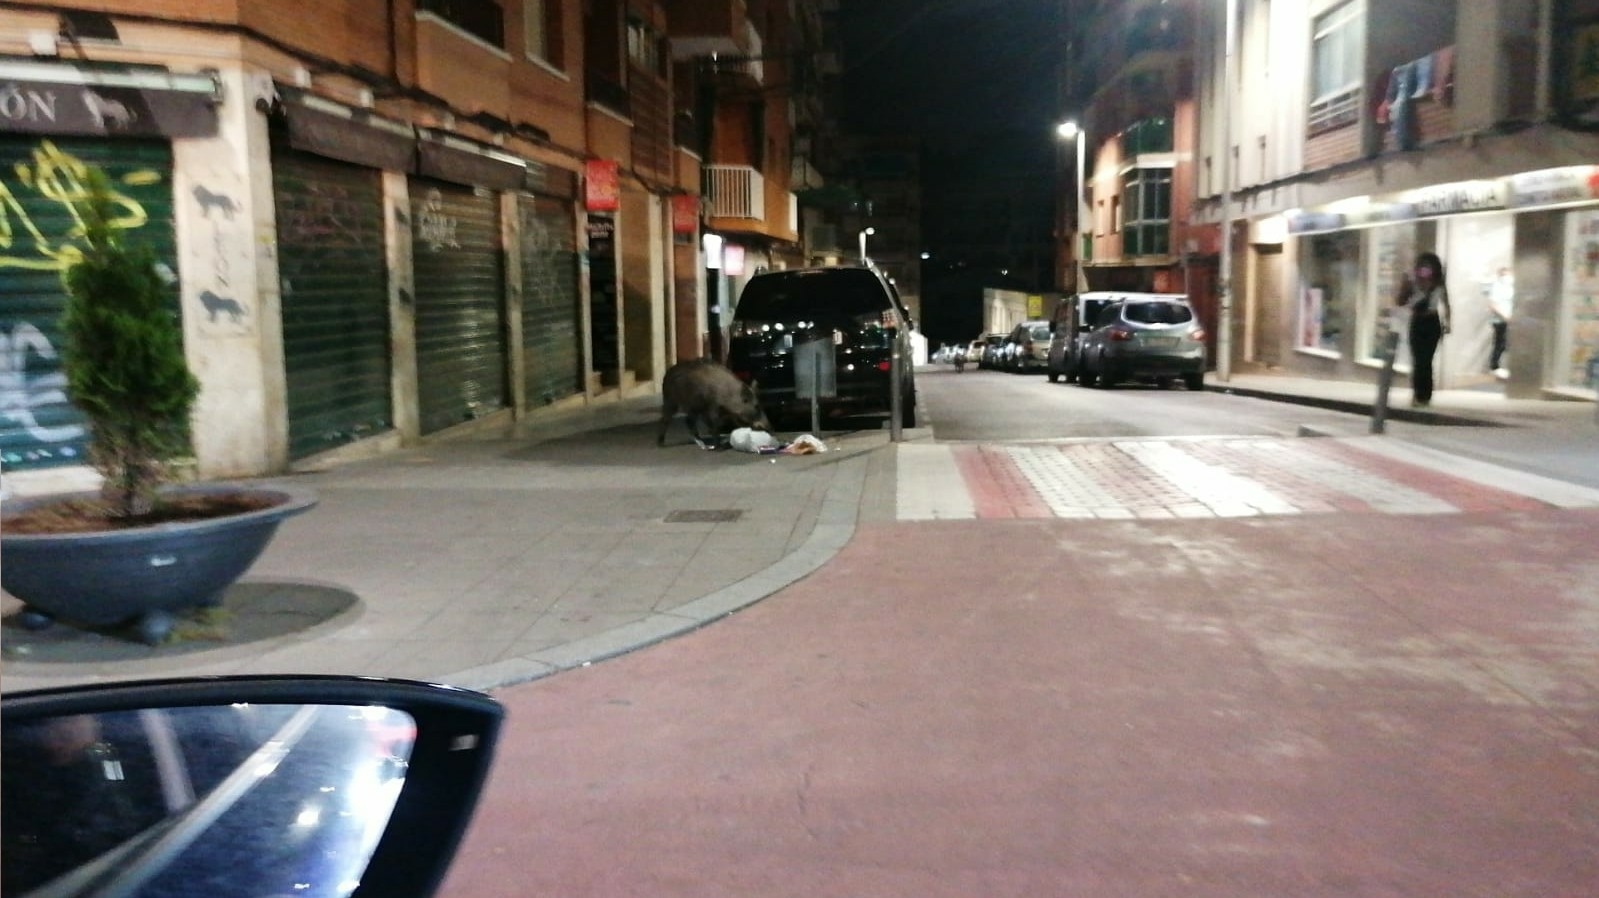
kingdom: Animalia
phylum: Chordata
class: Mammalia
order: Artiodactyla
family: Suidae
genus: Sus
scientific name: Sus scrofa
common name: Wild boar
